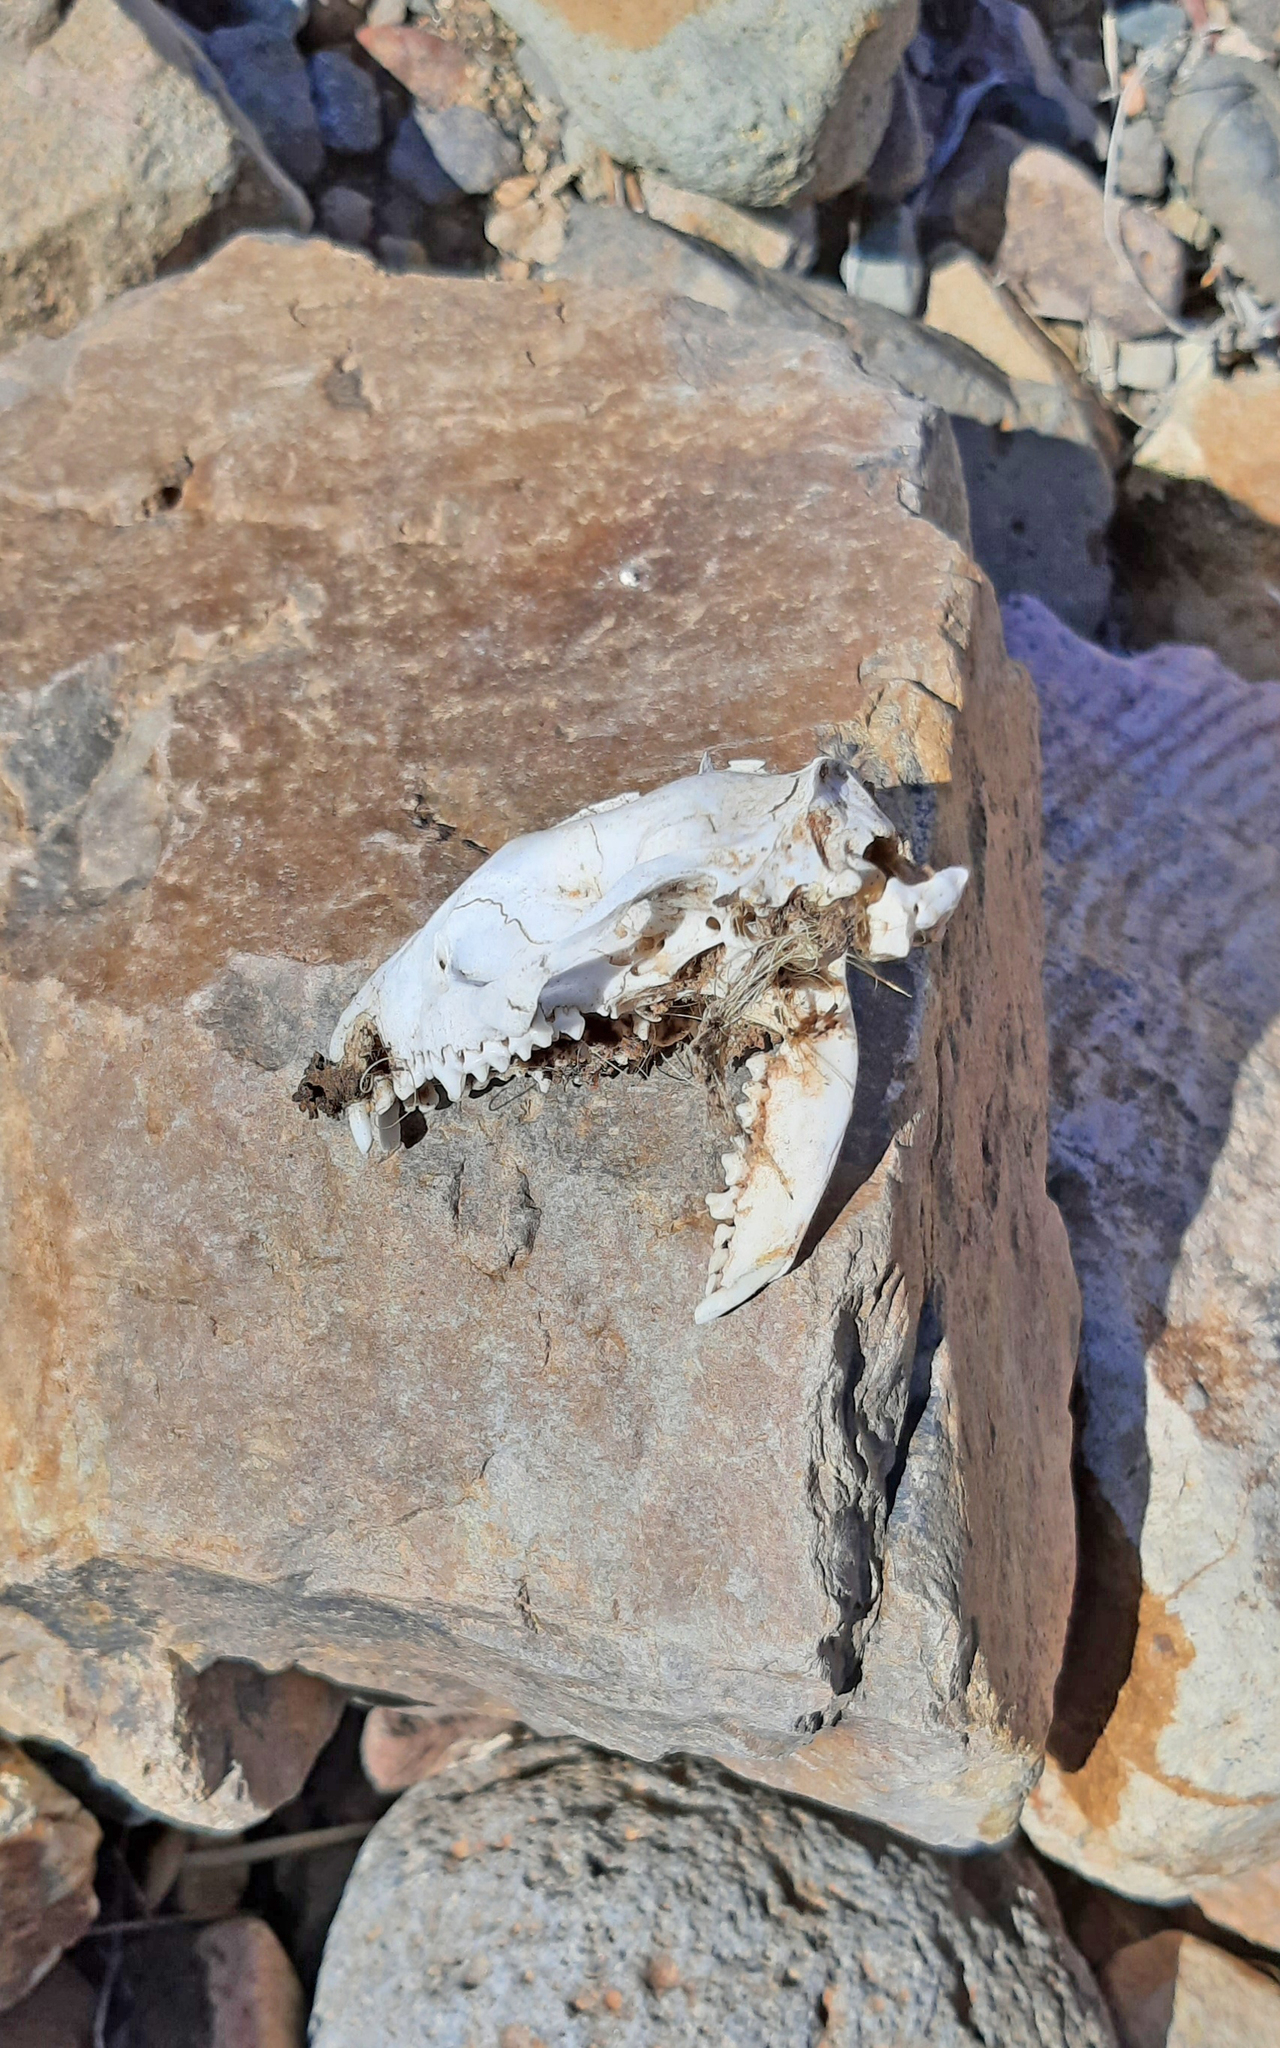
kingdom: Animalia
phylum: Chordata
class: Mammalia
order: Erinaceomorpha
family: Erinaceidae
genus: Atelerix
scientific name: Atelerix algirus
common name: North african hedgehog
